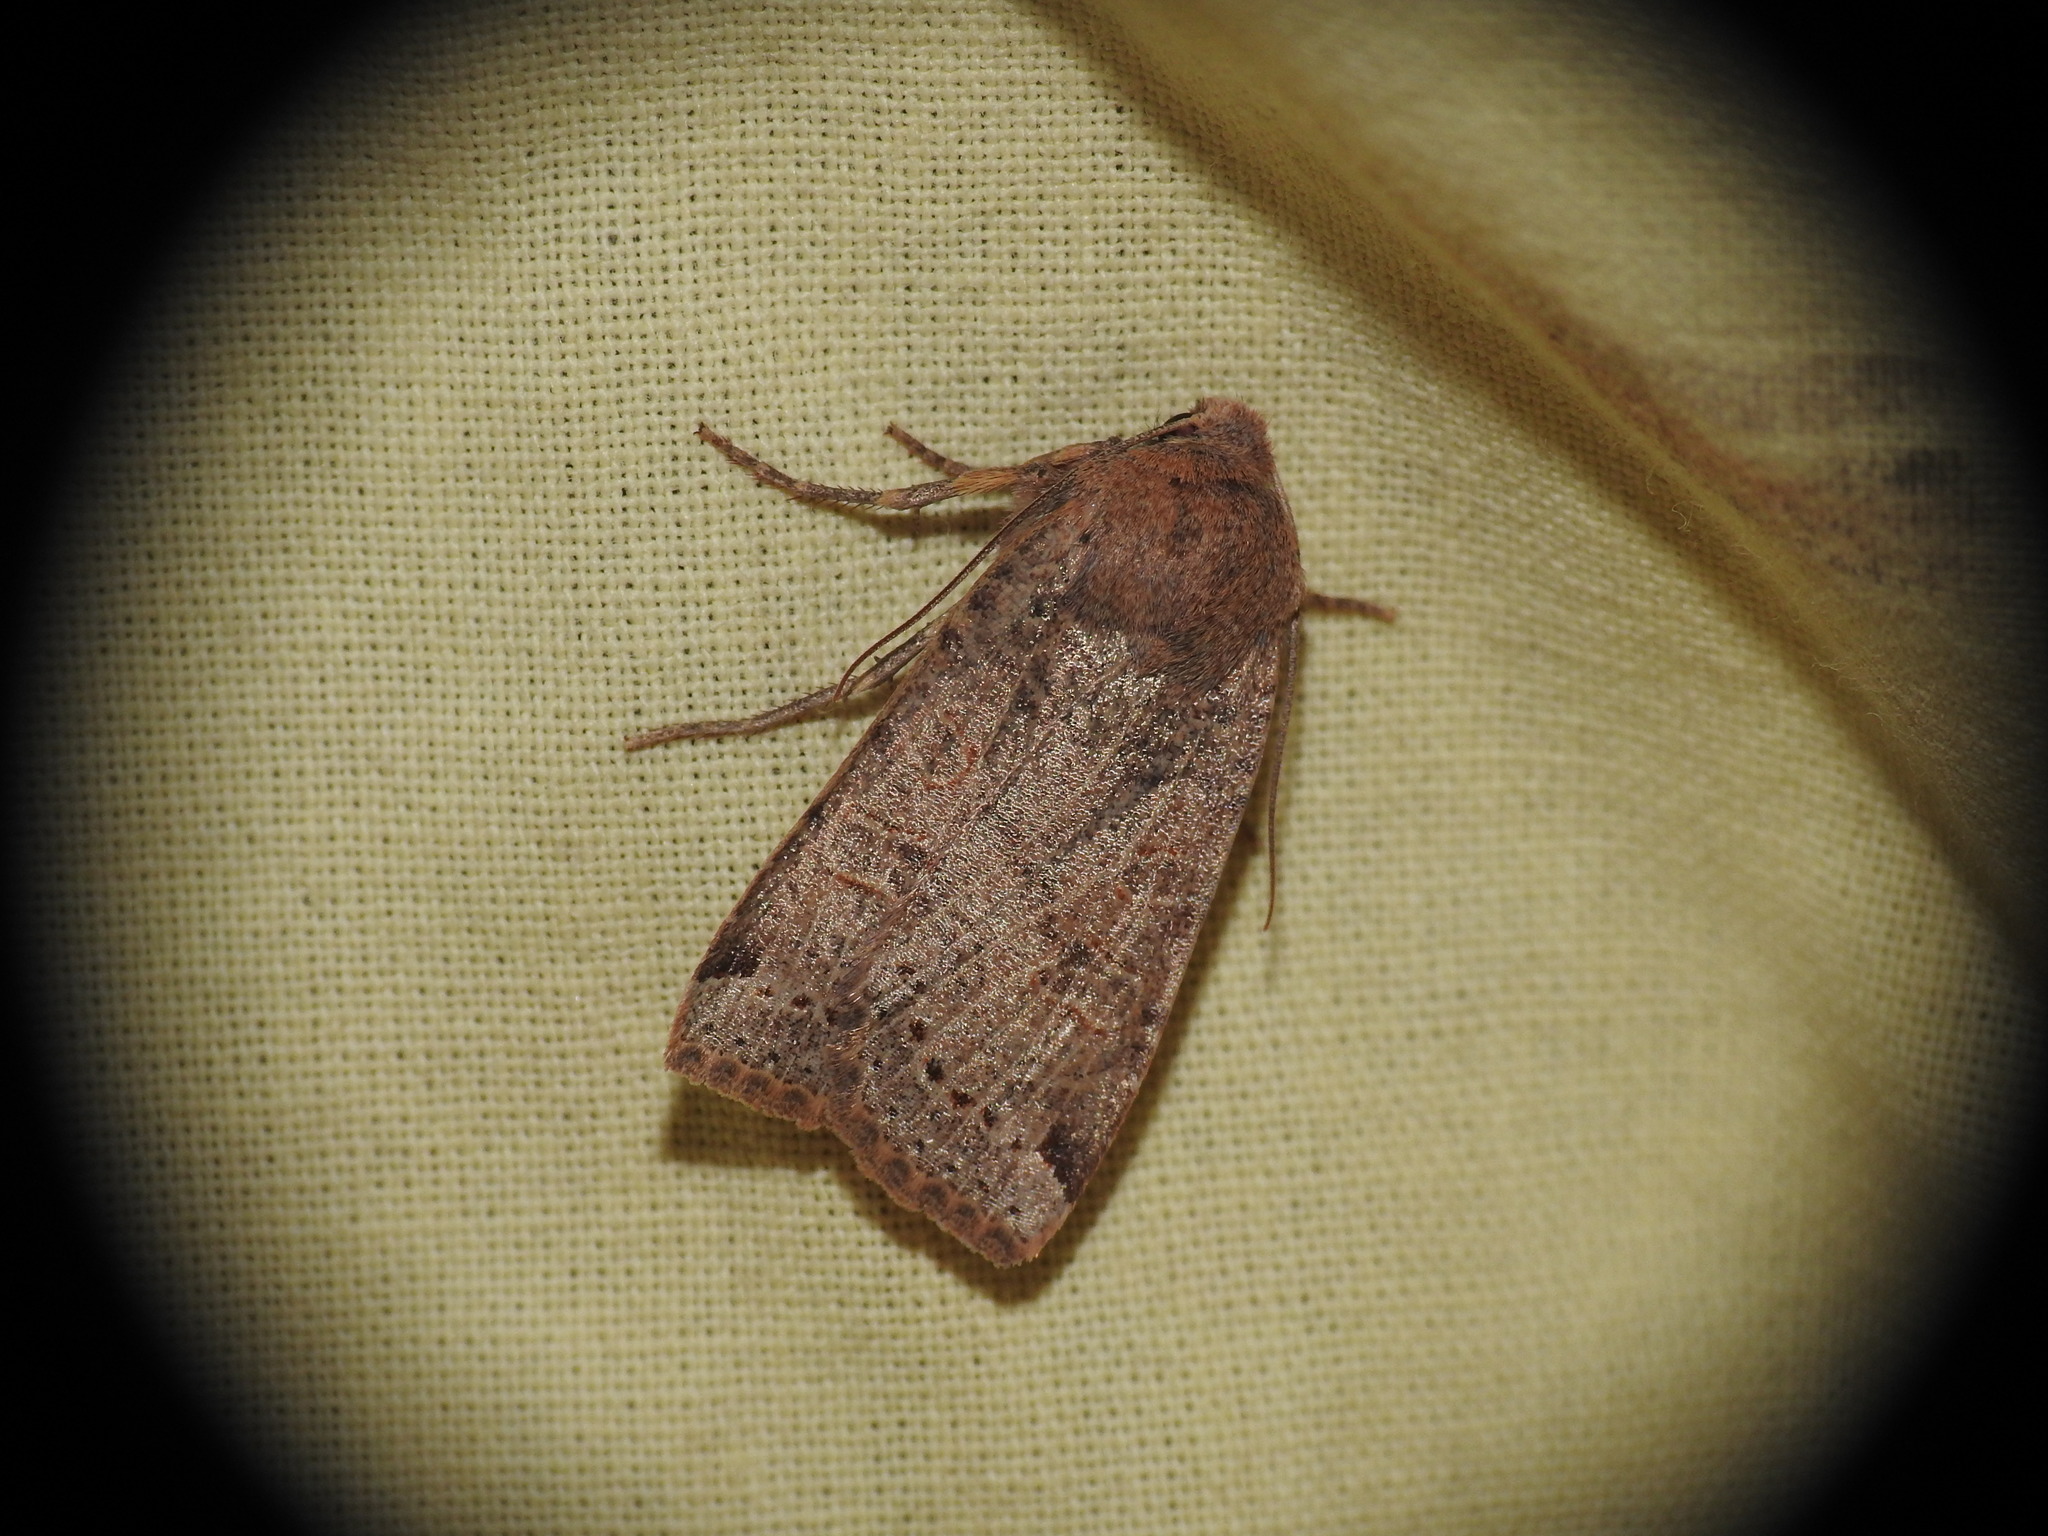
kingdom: Animalia
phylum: Arthropoda
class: Insecta
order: Lepidoptera
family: Noctuidae
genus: Conistra
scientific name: Conistra veronicae
